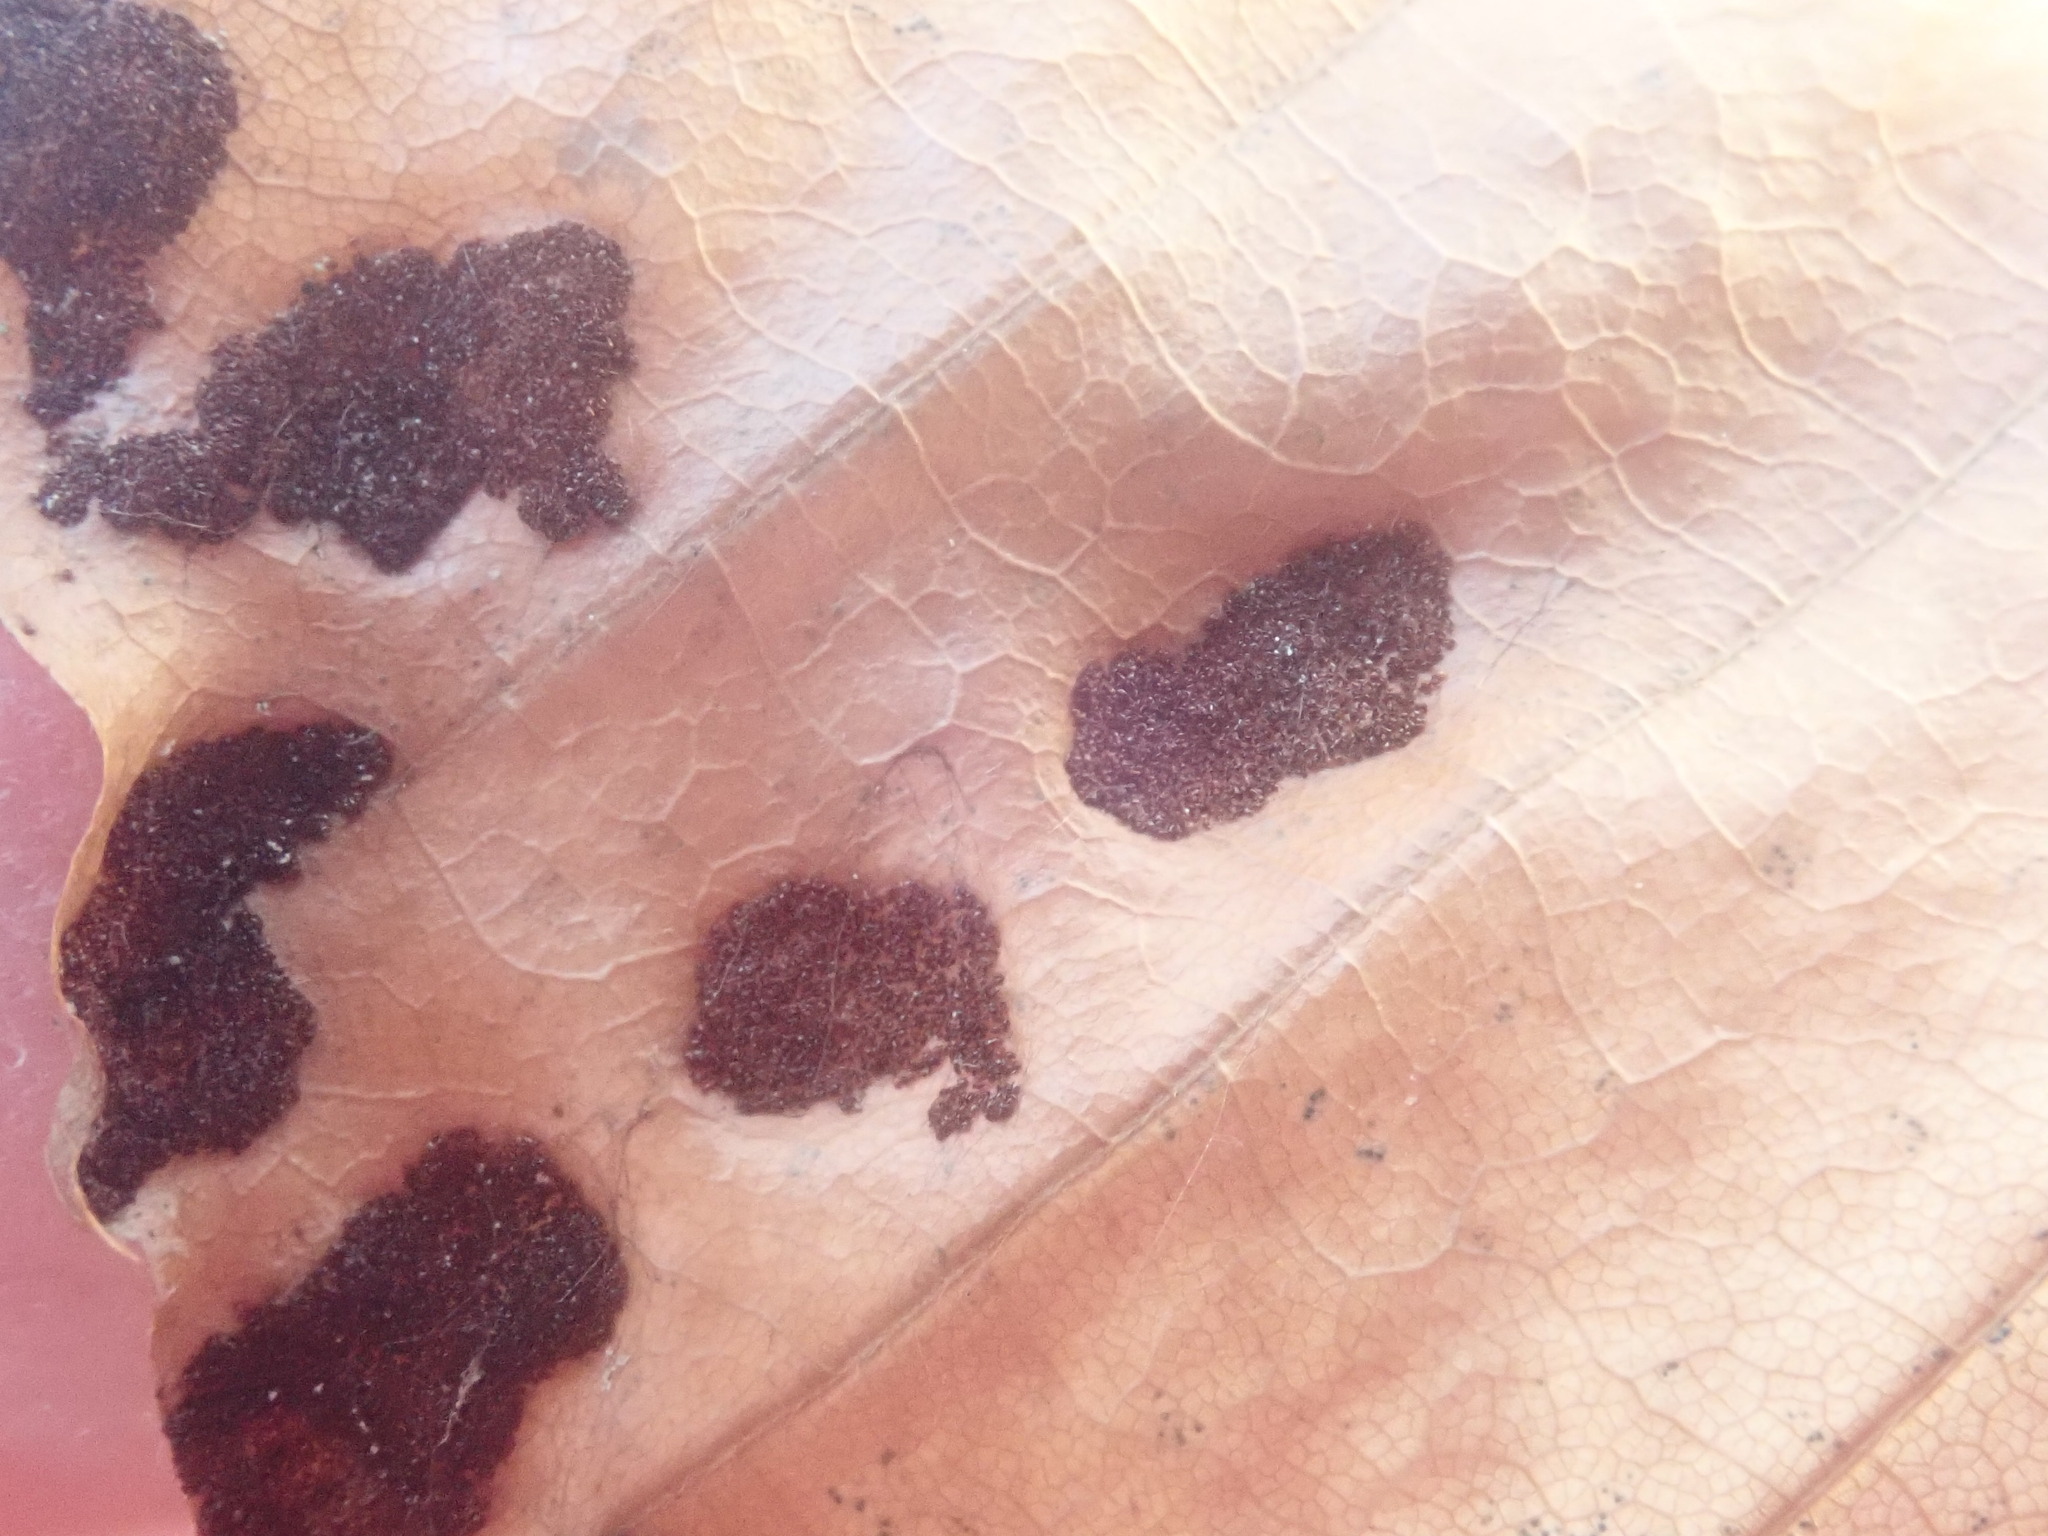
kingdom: Animalia
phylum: Arthropoda
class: Arachnida
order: Trombidiformes
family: Eriophyidae
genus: Acalitus
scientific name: Acalitus
